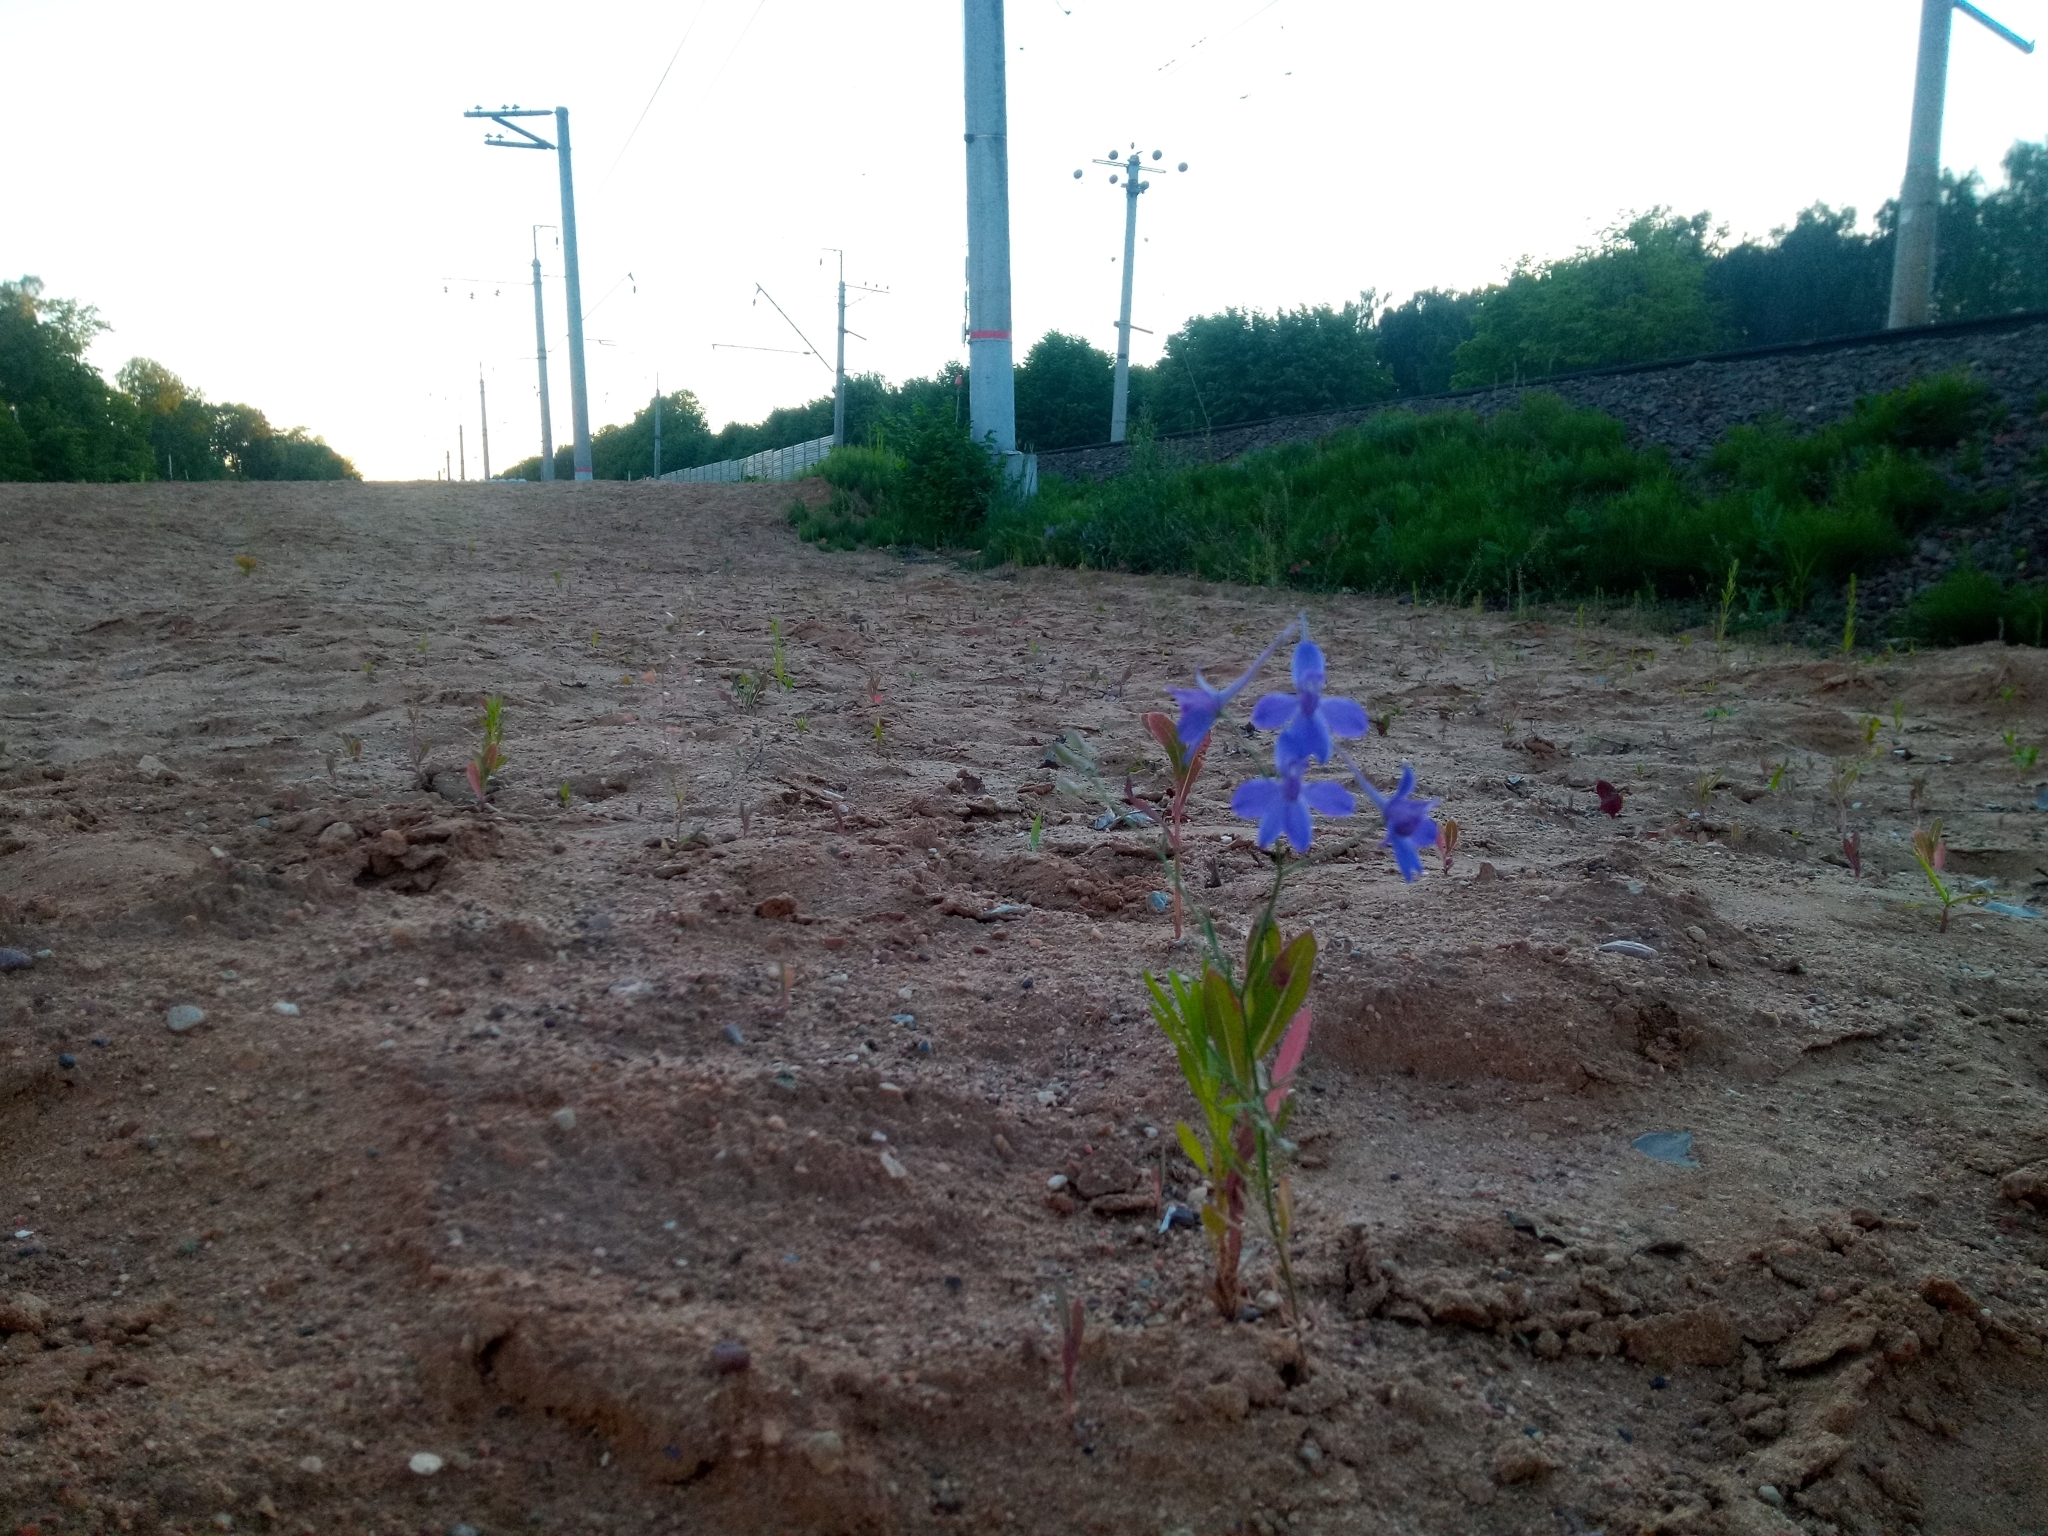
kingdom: Plantae
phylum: Tracheophyta
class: Magnoliopsida
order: Ranunculales
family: Ranunculaceae
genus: Delphinium
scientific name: Delphinium consolida
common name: Branching larkspur
